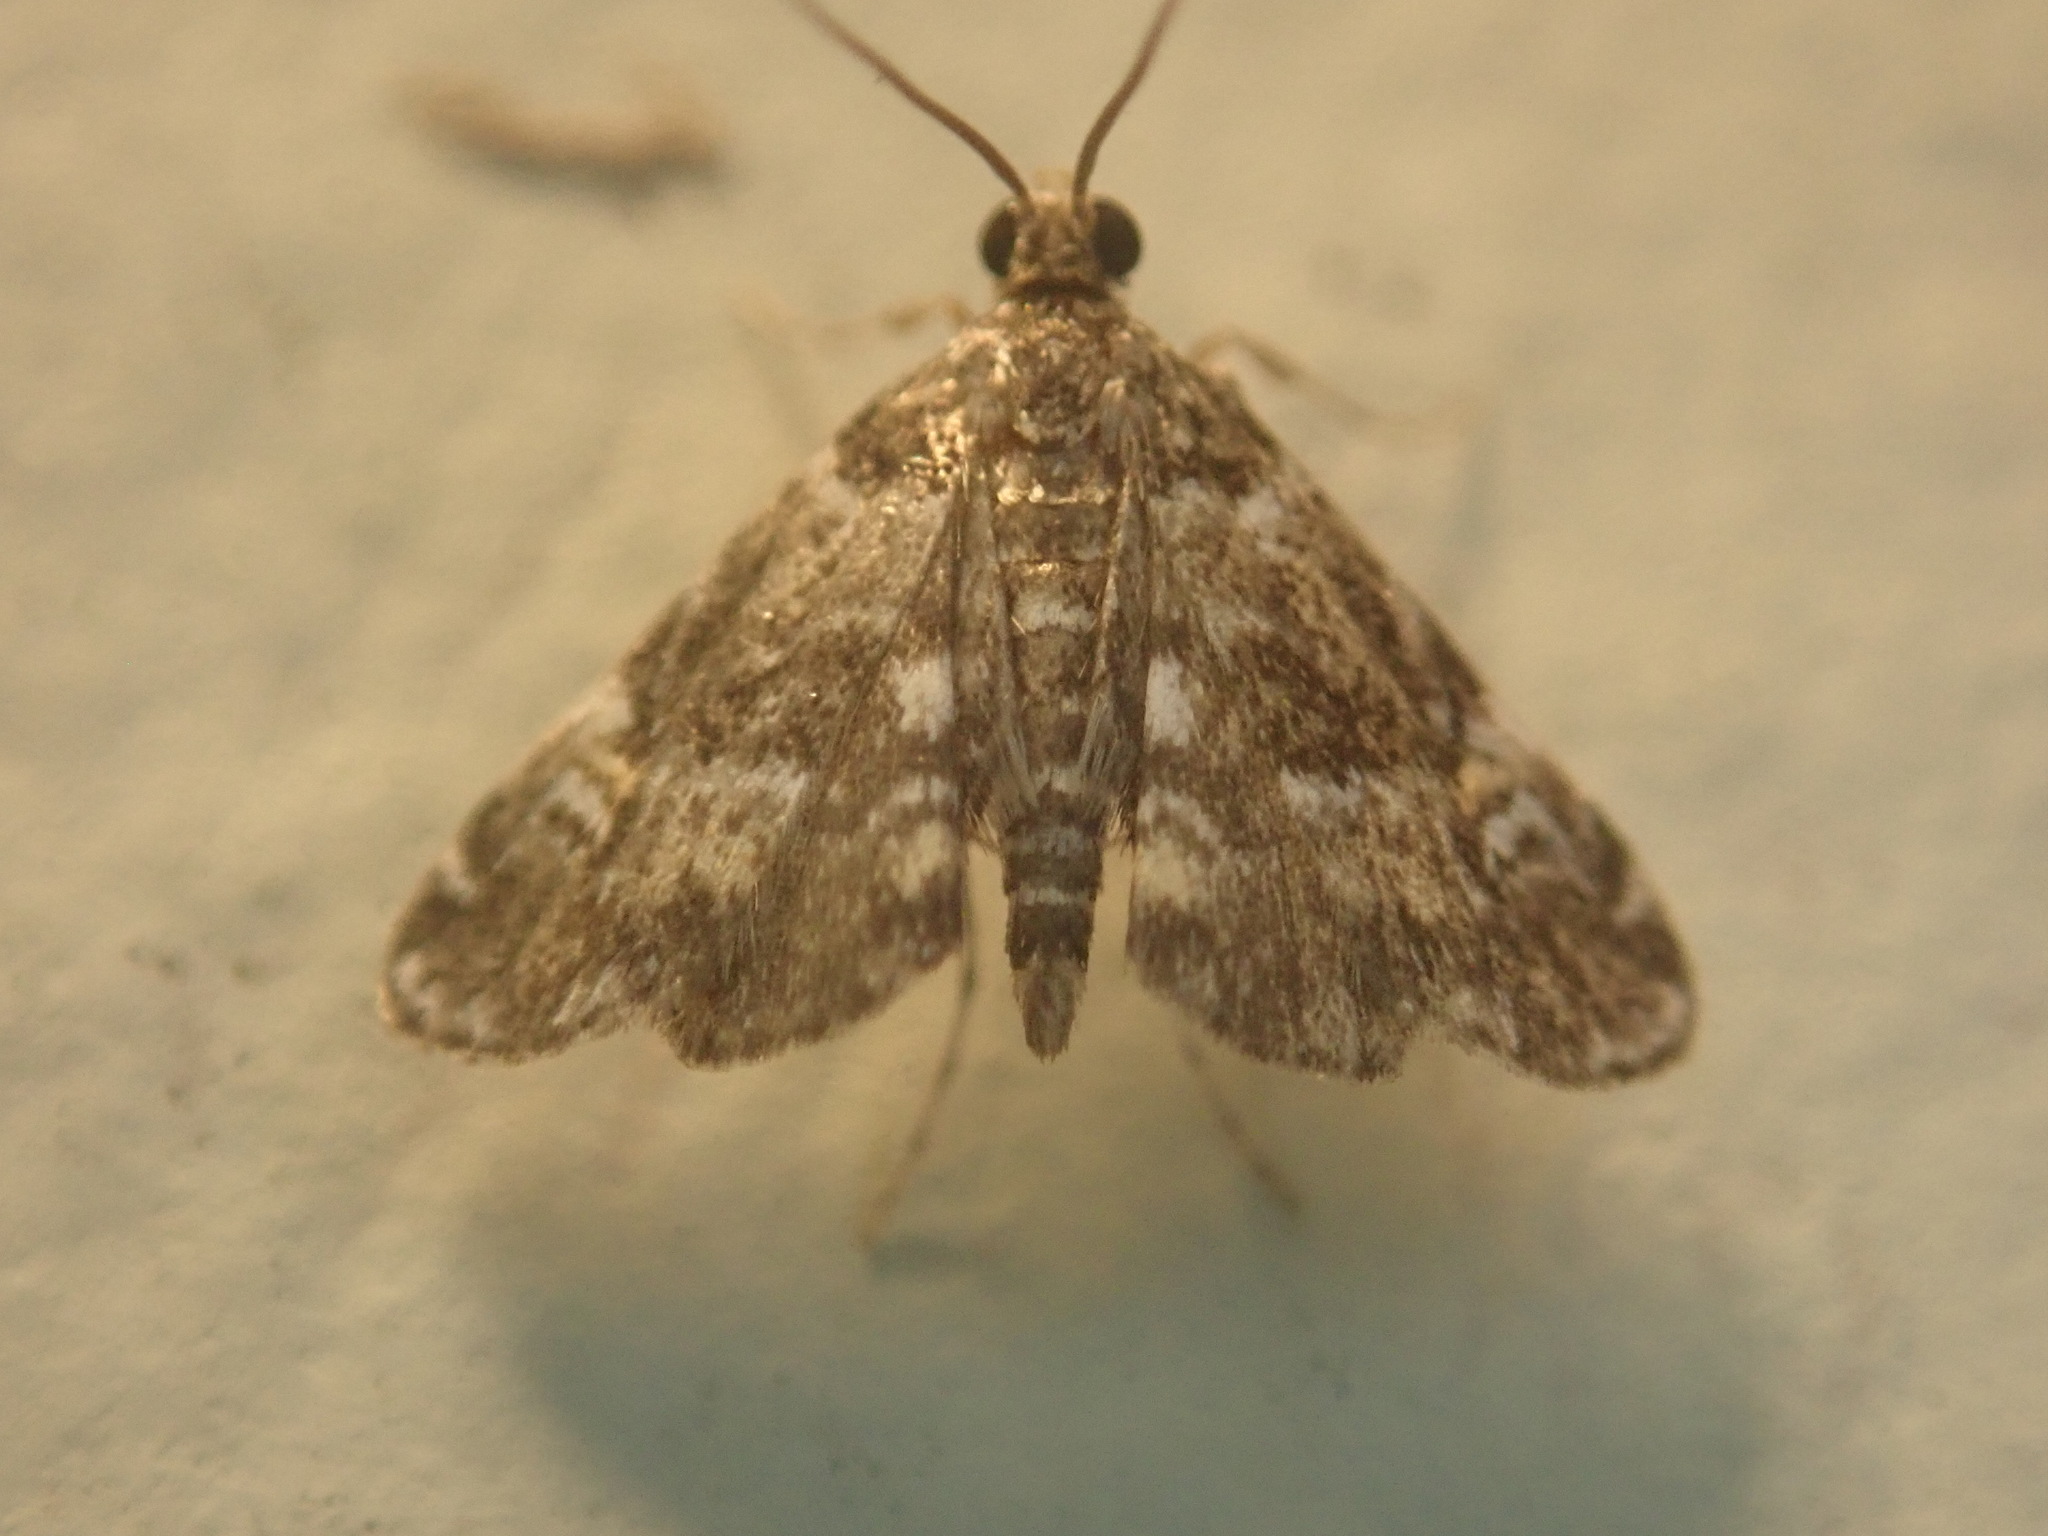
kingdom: Animalia
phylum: Arthropoda
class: Insecta
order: Lepidoptera
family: Crambidae
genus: Elophila
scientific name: Elophila obliteralis
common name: Waterlily leafcutter moth
